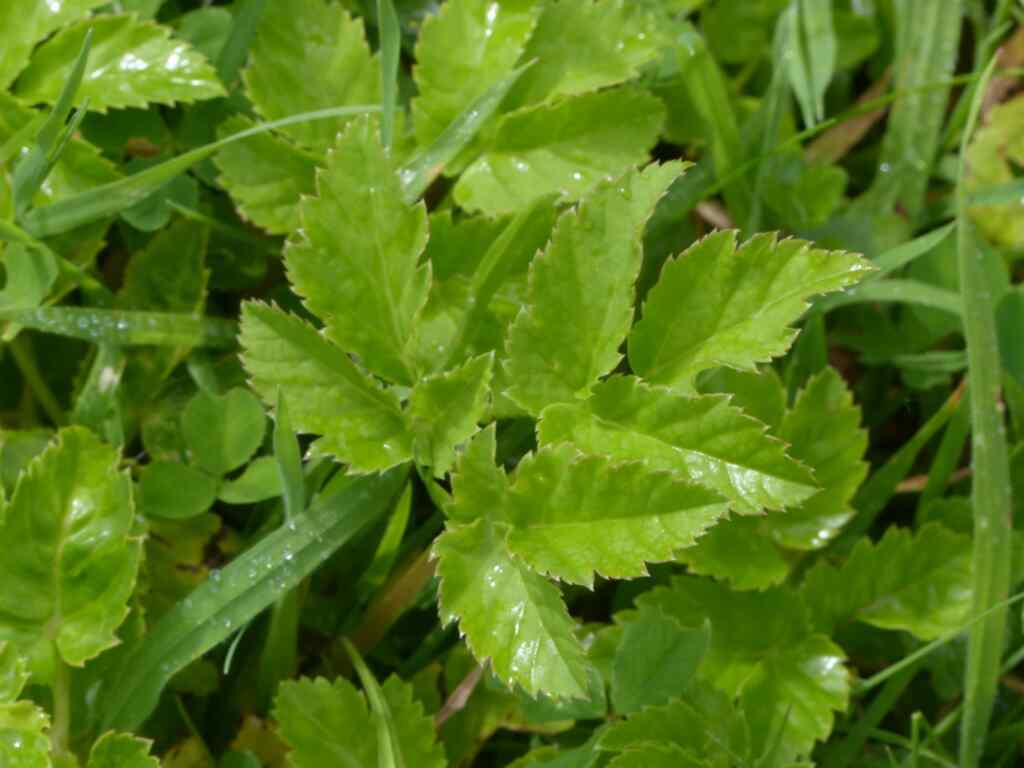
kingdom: Plantae
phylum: Tracheophyta
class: Magnoliopsida
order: Apiales
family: Apiaceae
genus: Aegopodium
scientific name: Aegopodium podagraria
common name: Ground-elder
